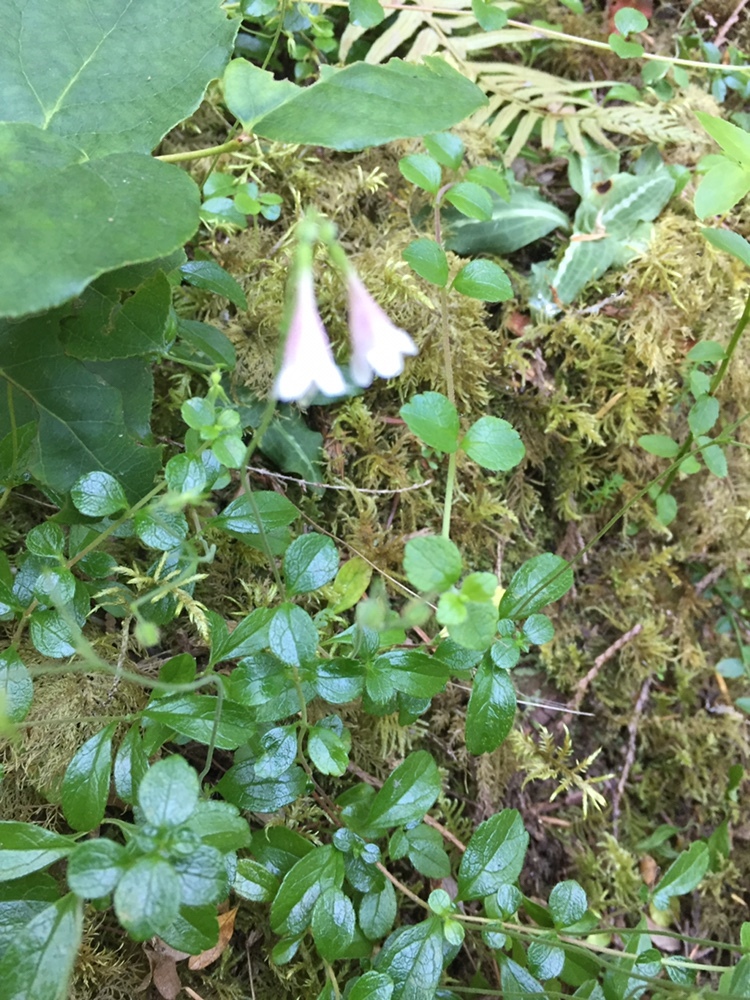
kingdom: Plantae
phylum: Tracheophyta
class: Magnoliopsida
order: Dipsacales
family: Caprifoliaceae
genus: Linnaea
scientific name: Linnaea borealis
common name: Twinflower
